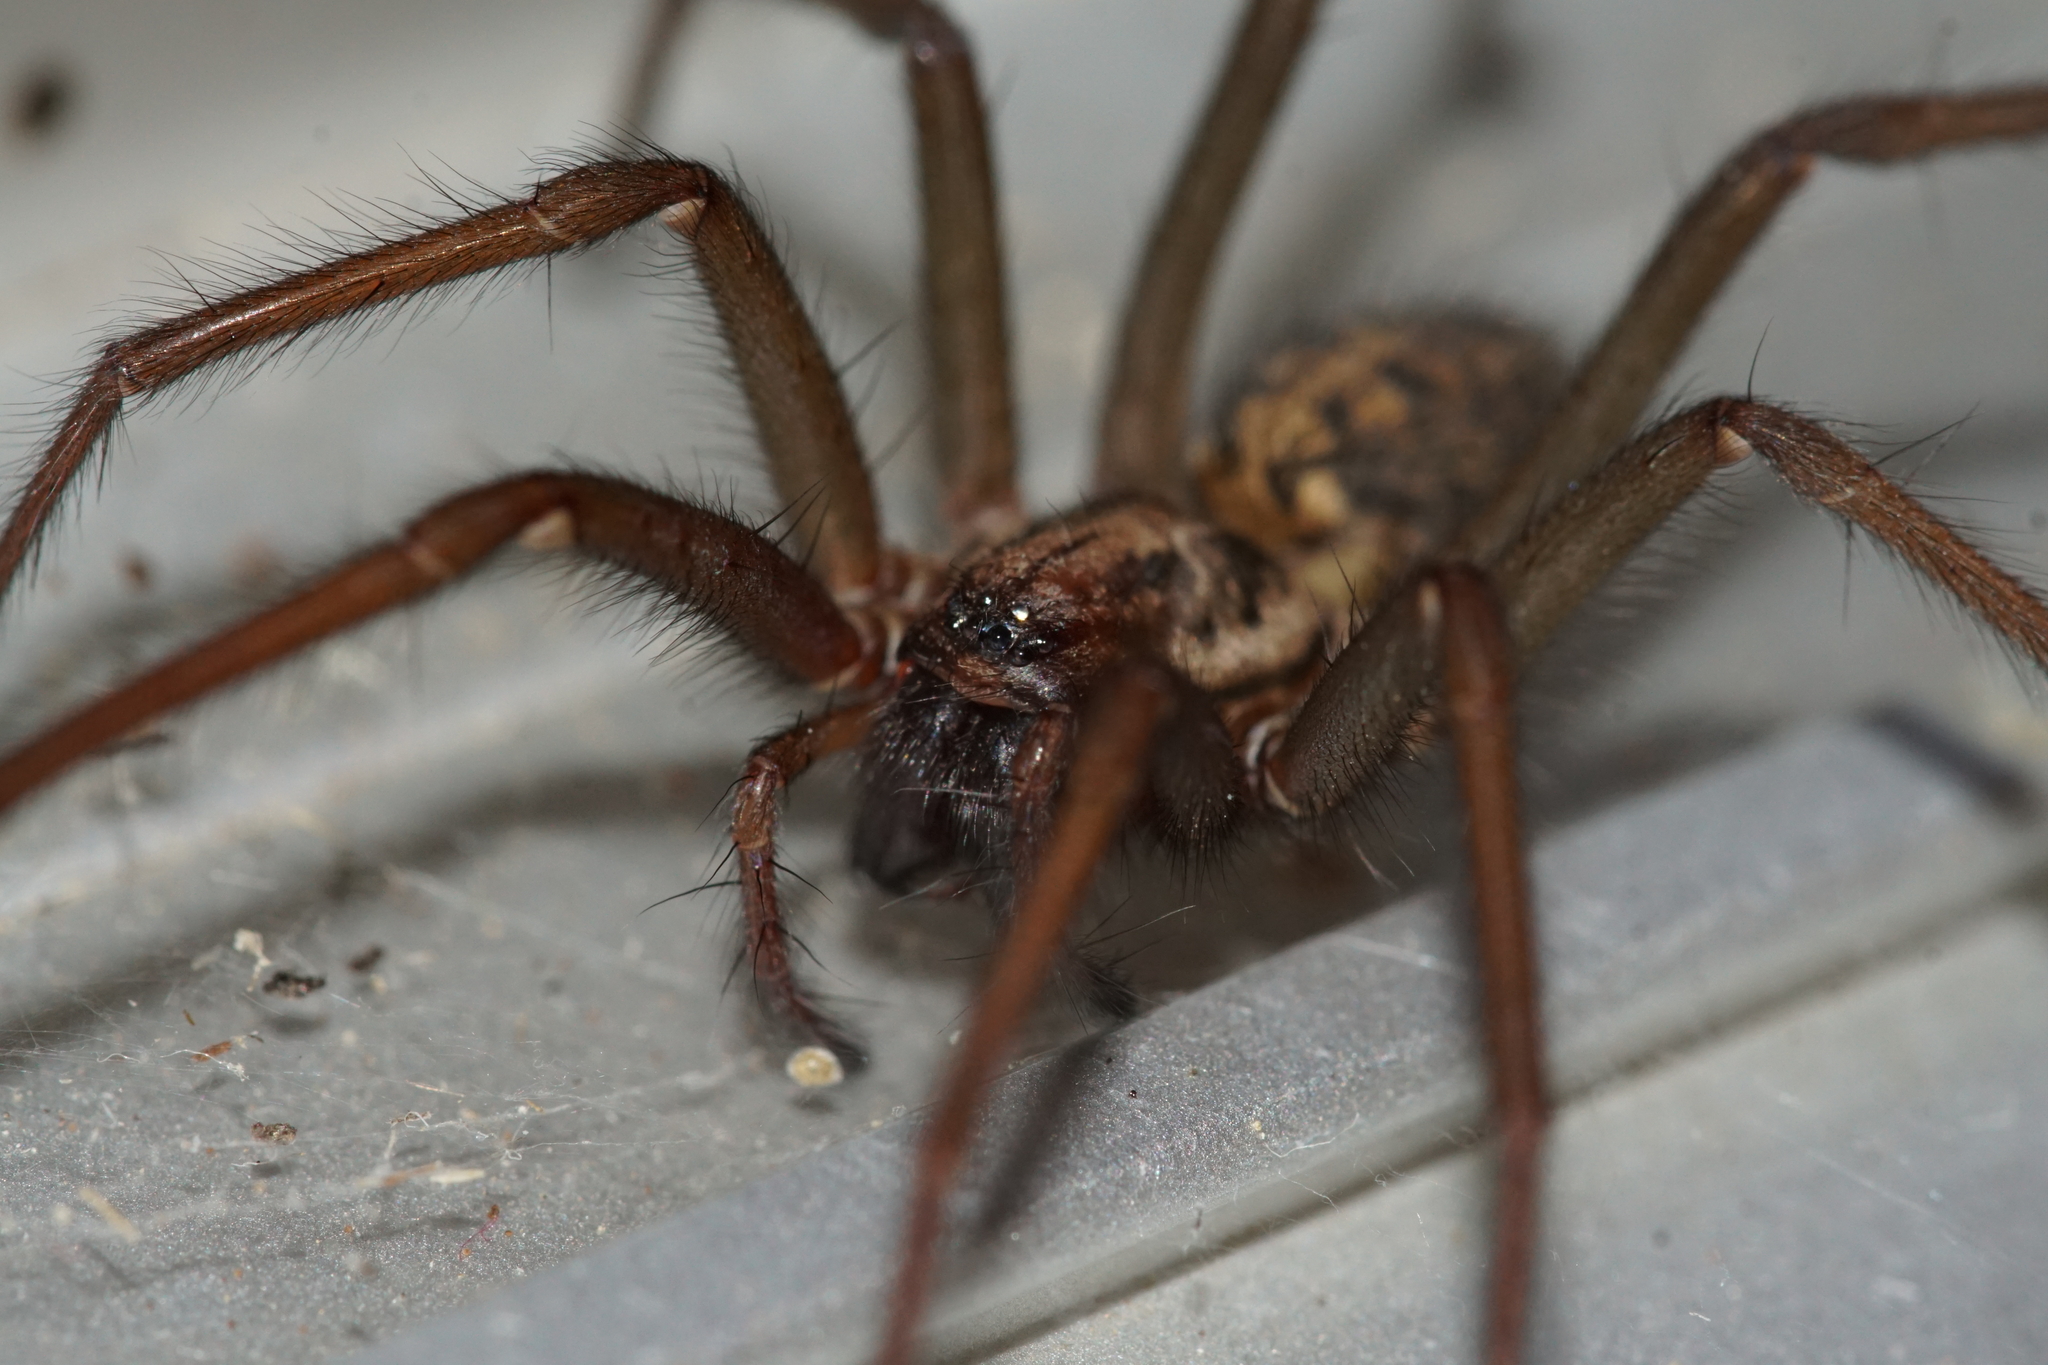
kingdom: Animalia
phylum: Arthropoda
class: Arachnida
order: Araneae
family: Agelenidae
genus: Eratigena
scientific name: Eratigena
